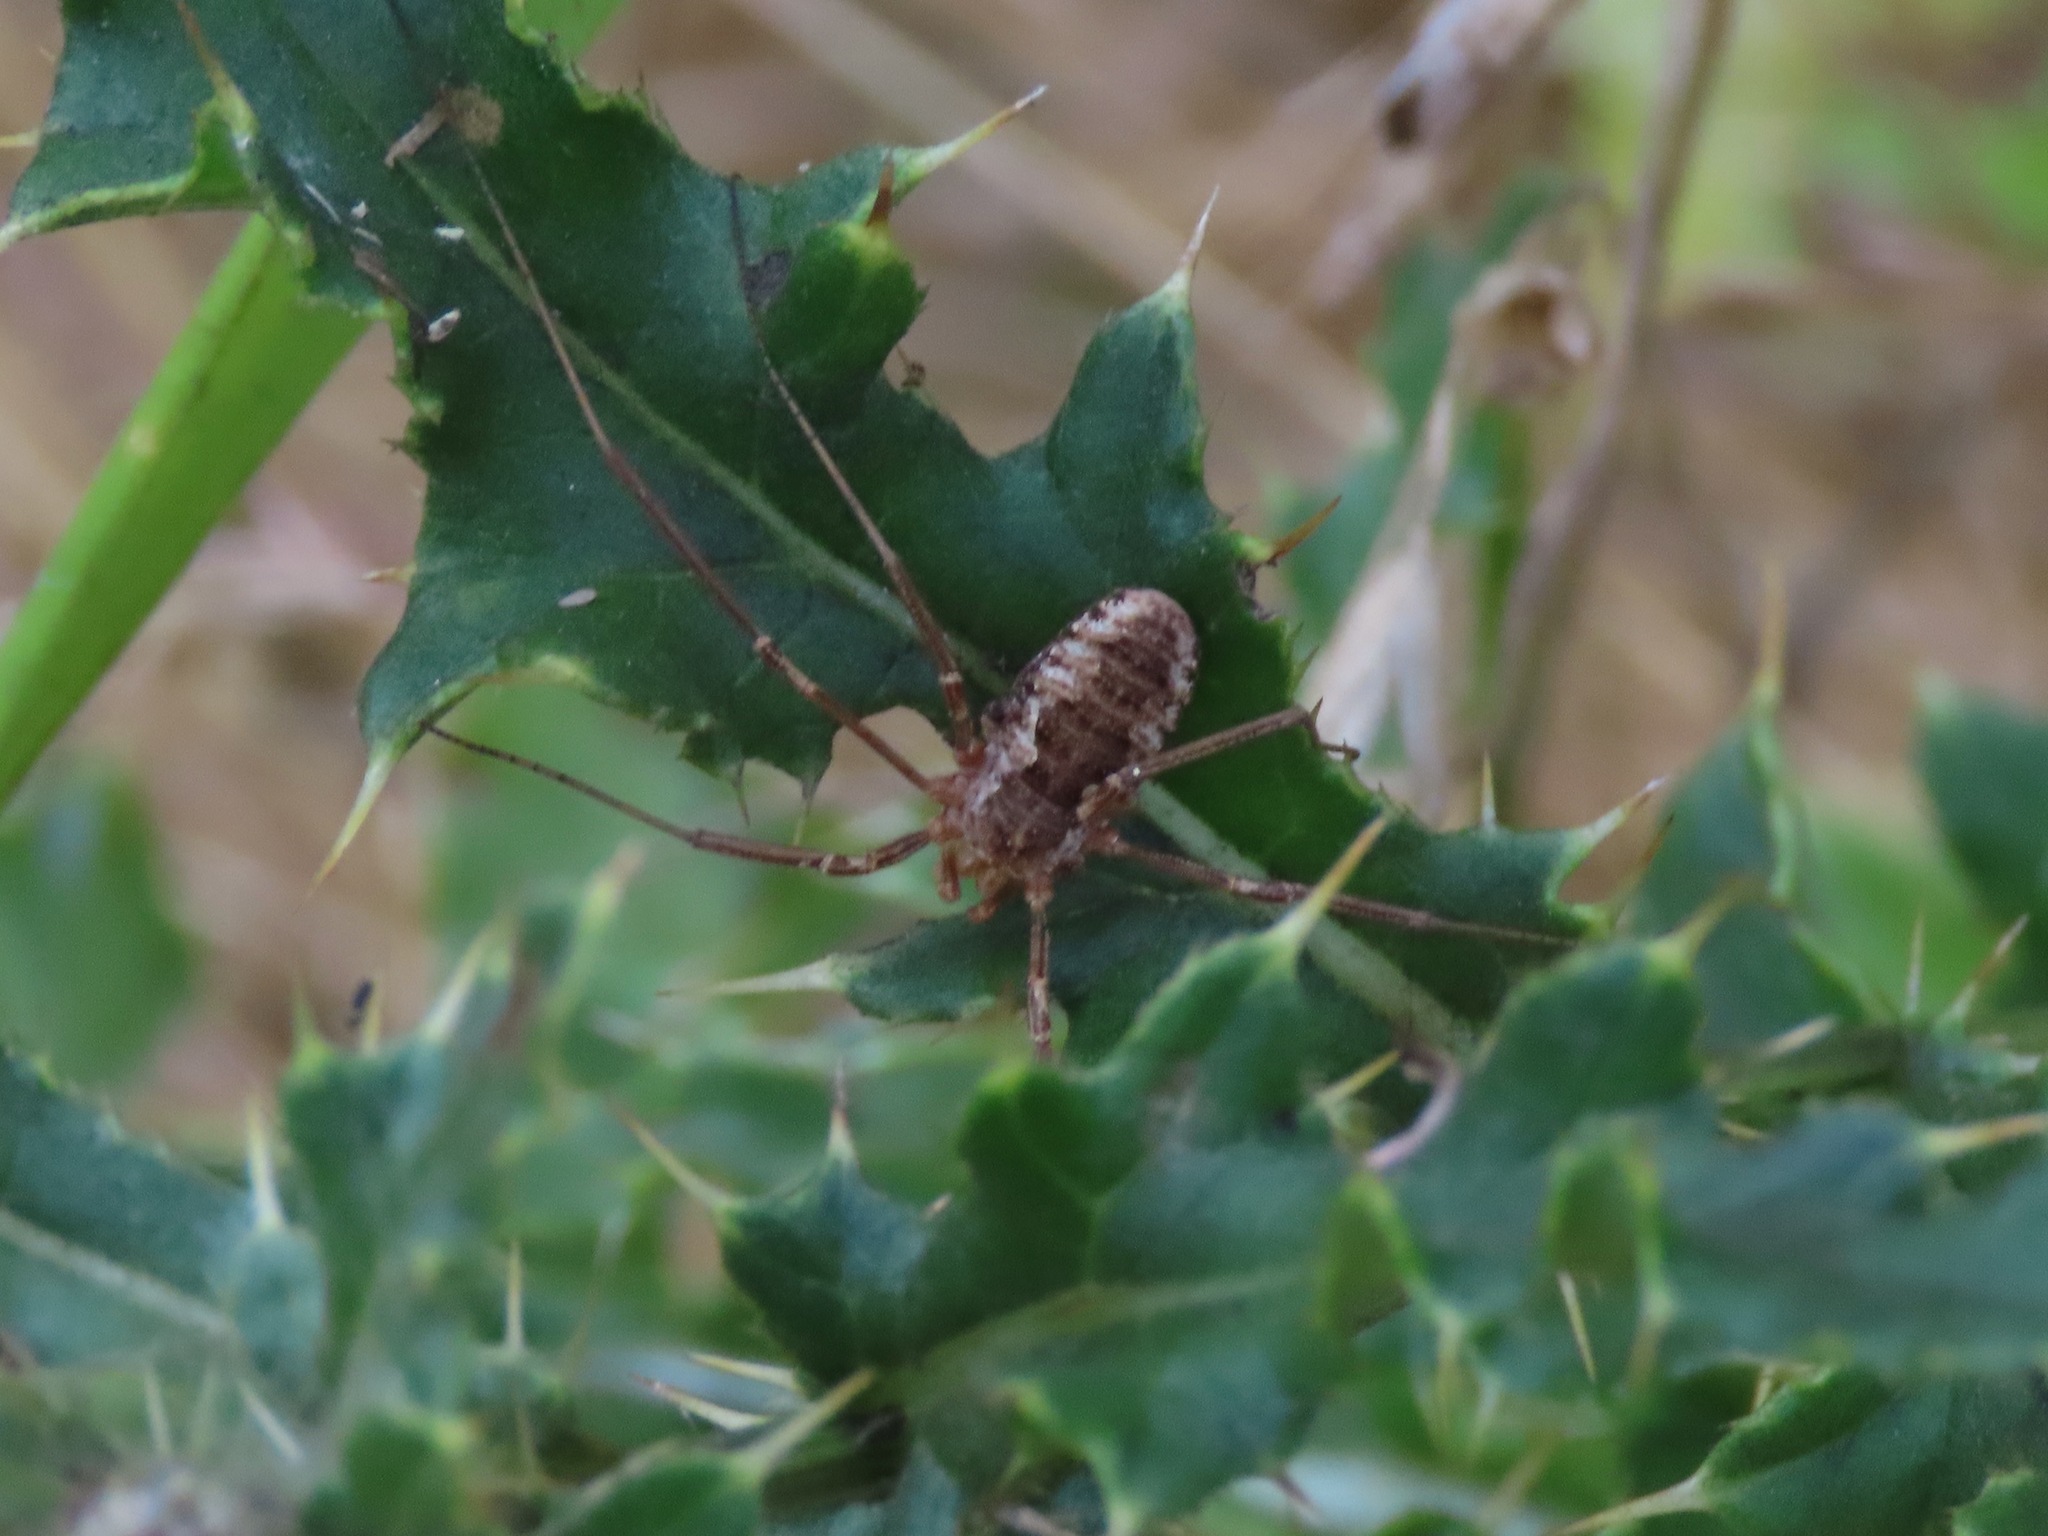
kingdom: Animalia
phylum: Arthropoda
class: Arachnida
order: Opiliones
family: Phalangiidae
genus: Phalangium
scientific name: Phalangium opilio
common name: Daddy longleg
